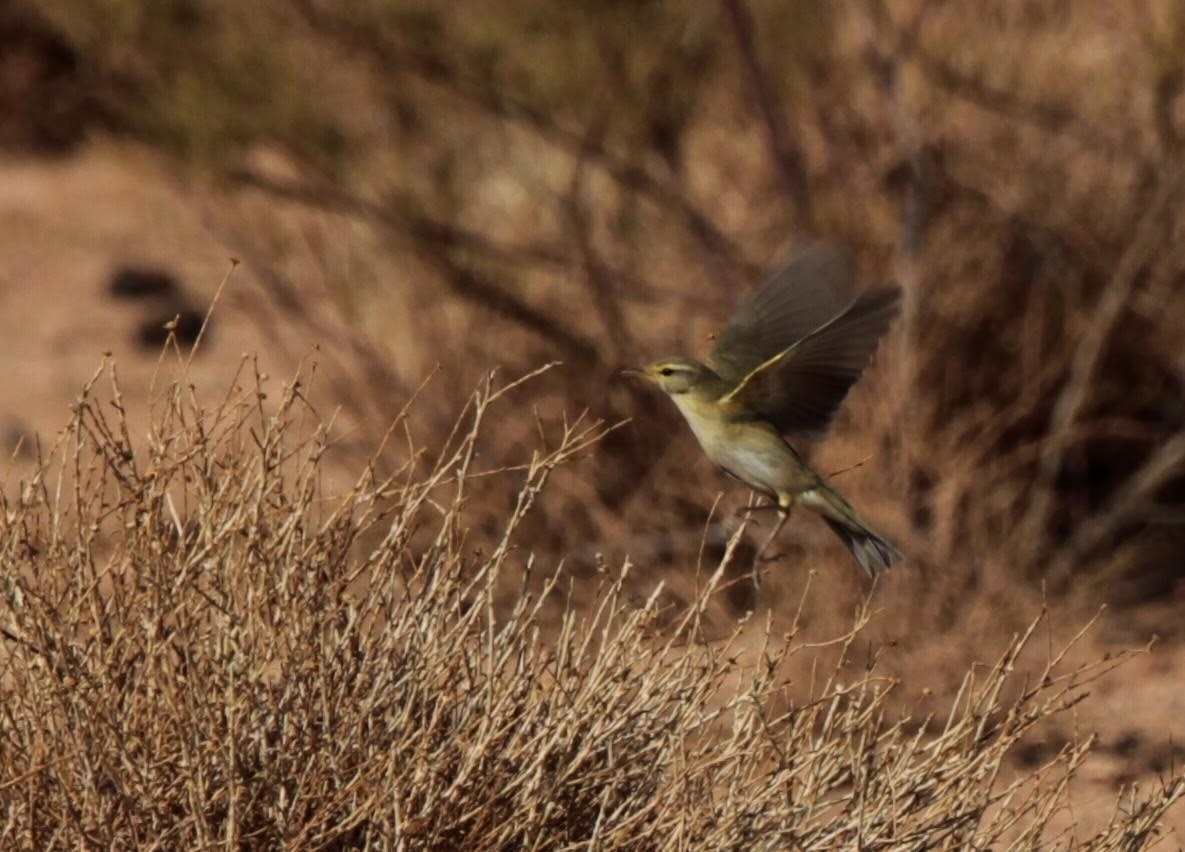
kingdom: Animalia
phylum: Chordata
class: Aves
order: Passeriformes
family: Phylloscopidae
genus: Phylloscopus
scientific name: Phylloscopus trochilus
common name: Willow warbler
